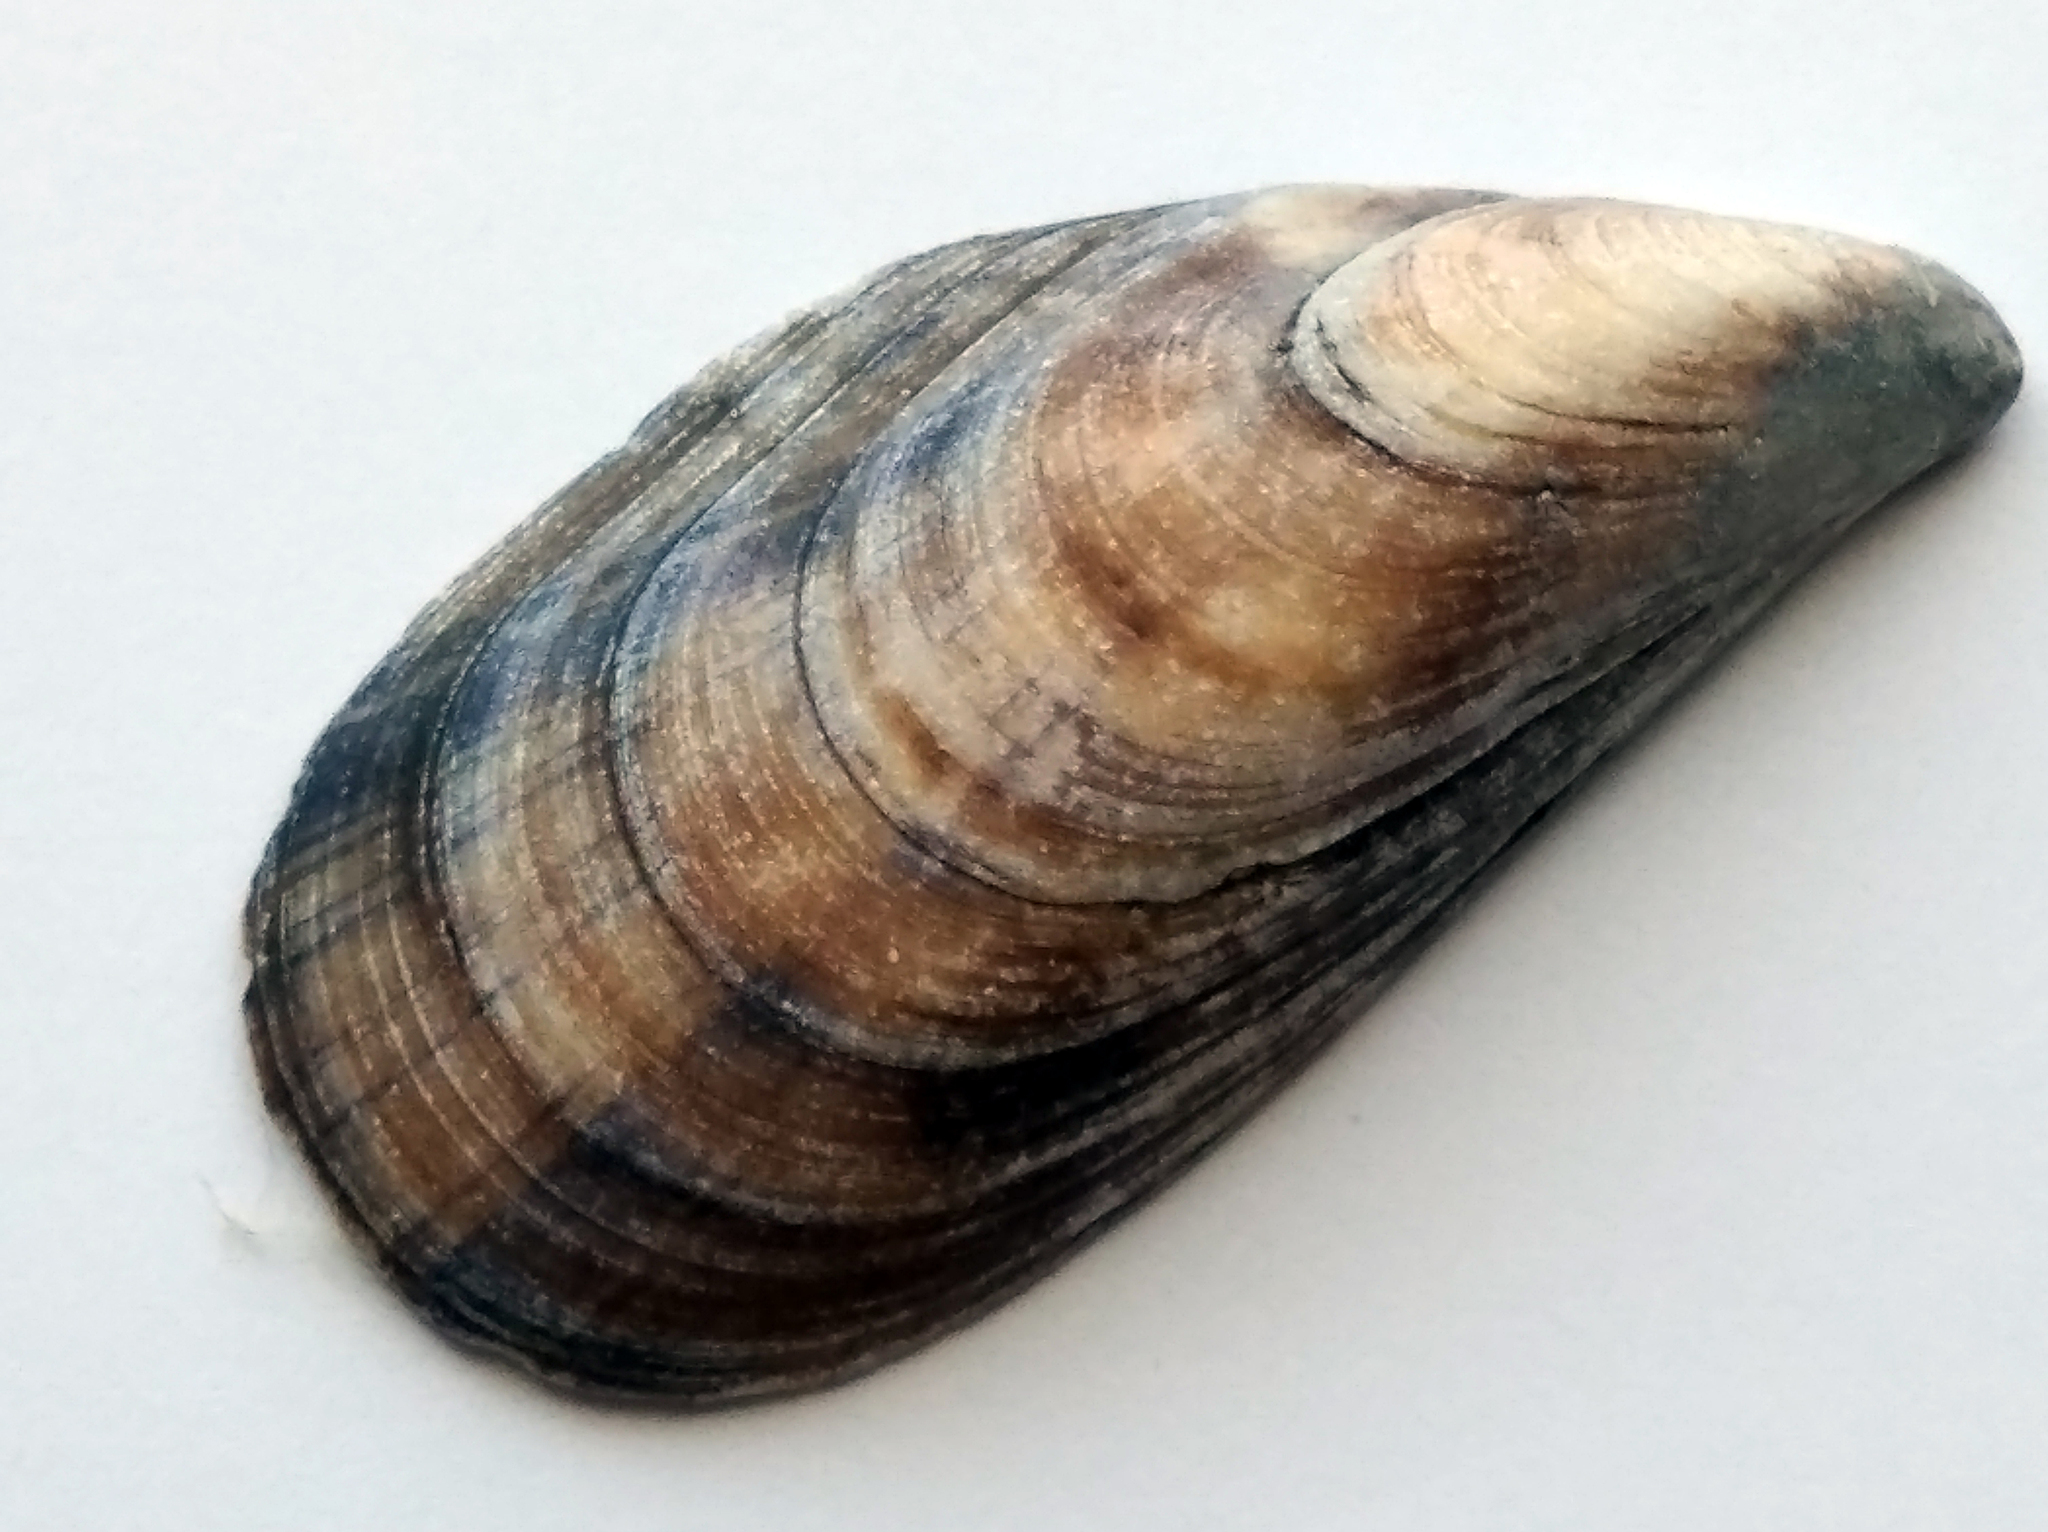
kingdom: Animalia
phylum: Mollusca
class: Bivalvia
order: Mytilida
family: Mytilidae
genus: Mytilus
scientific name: Mytilus galloprovincialis
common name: Mediterranean mussel
